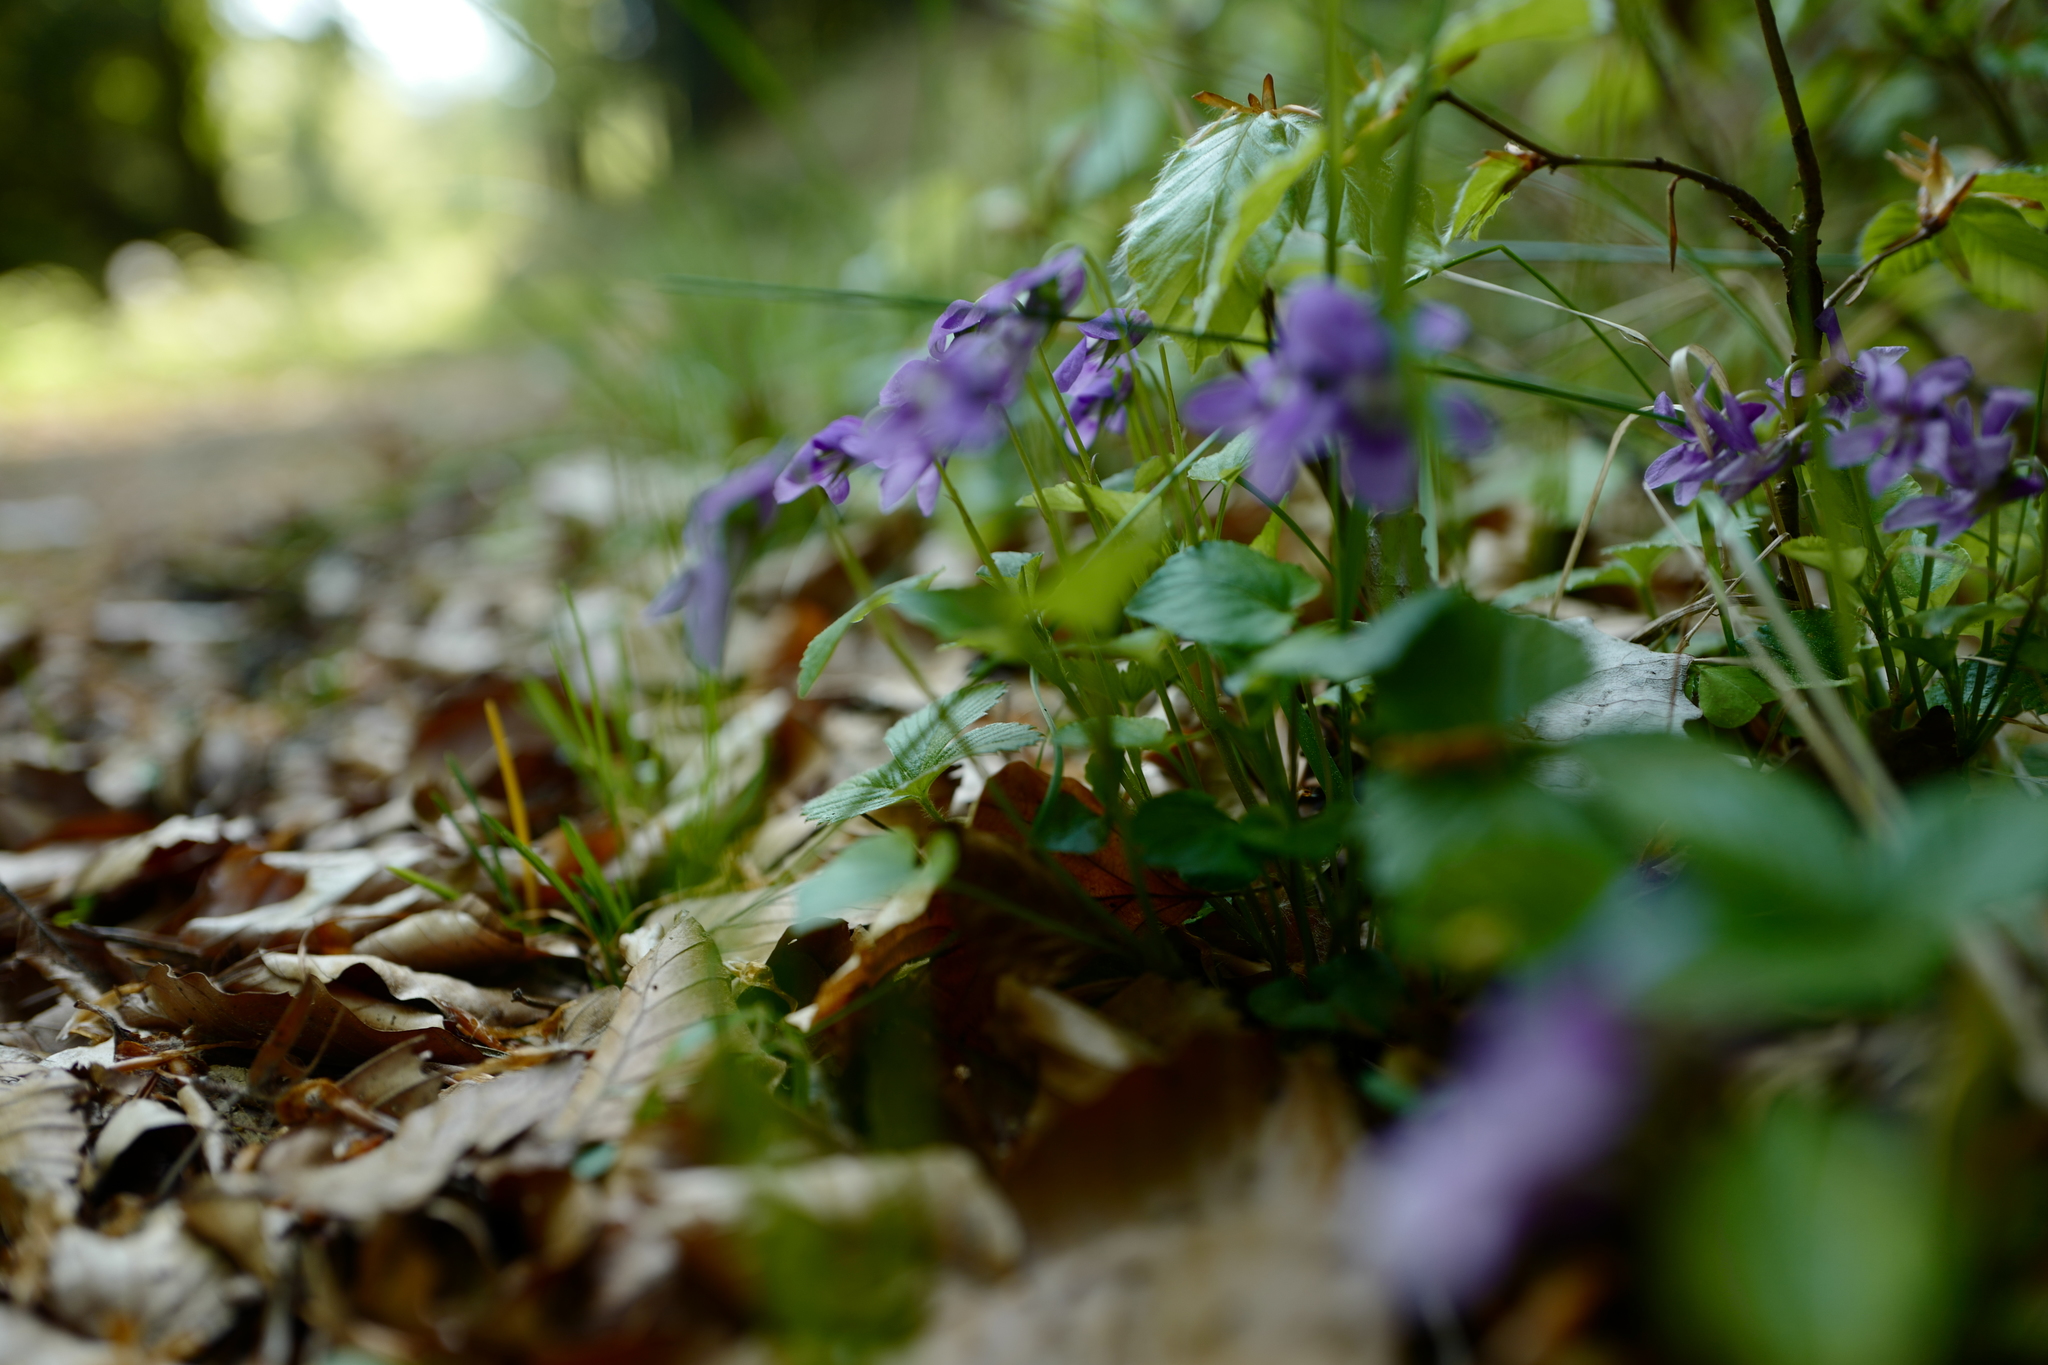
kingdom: Plantae
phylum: Tracheophyta
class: Magnoliopsida
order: Malpighiales
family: Violaceae
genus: Viola
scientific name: Viola reichenbachiana
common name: Early dog-violet
